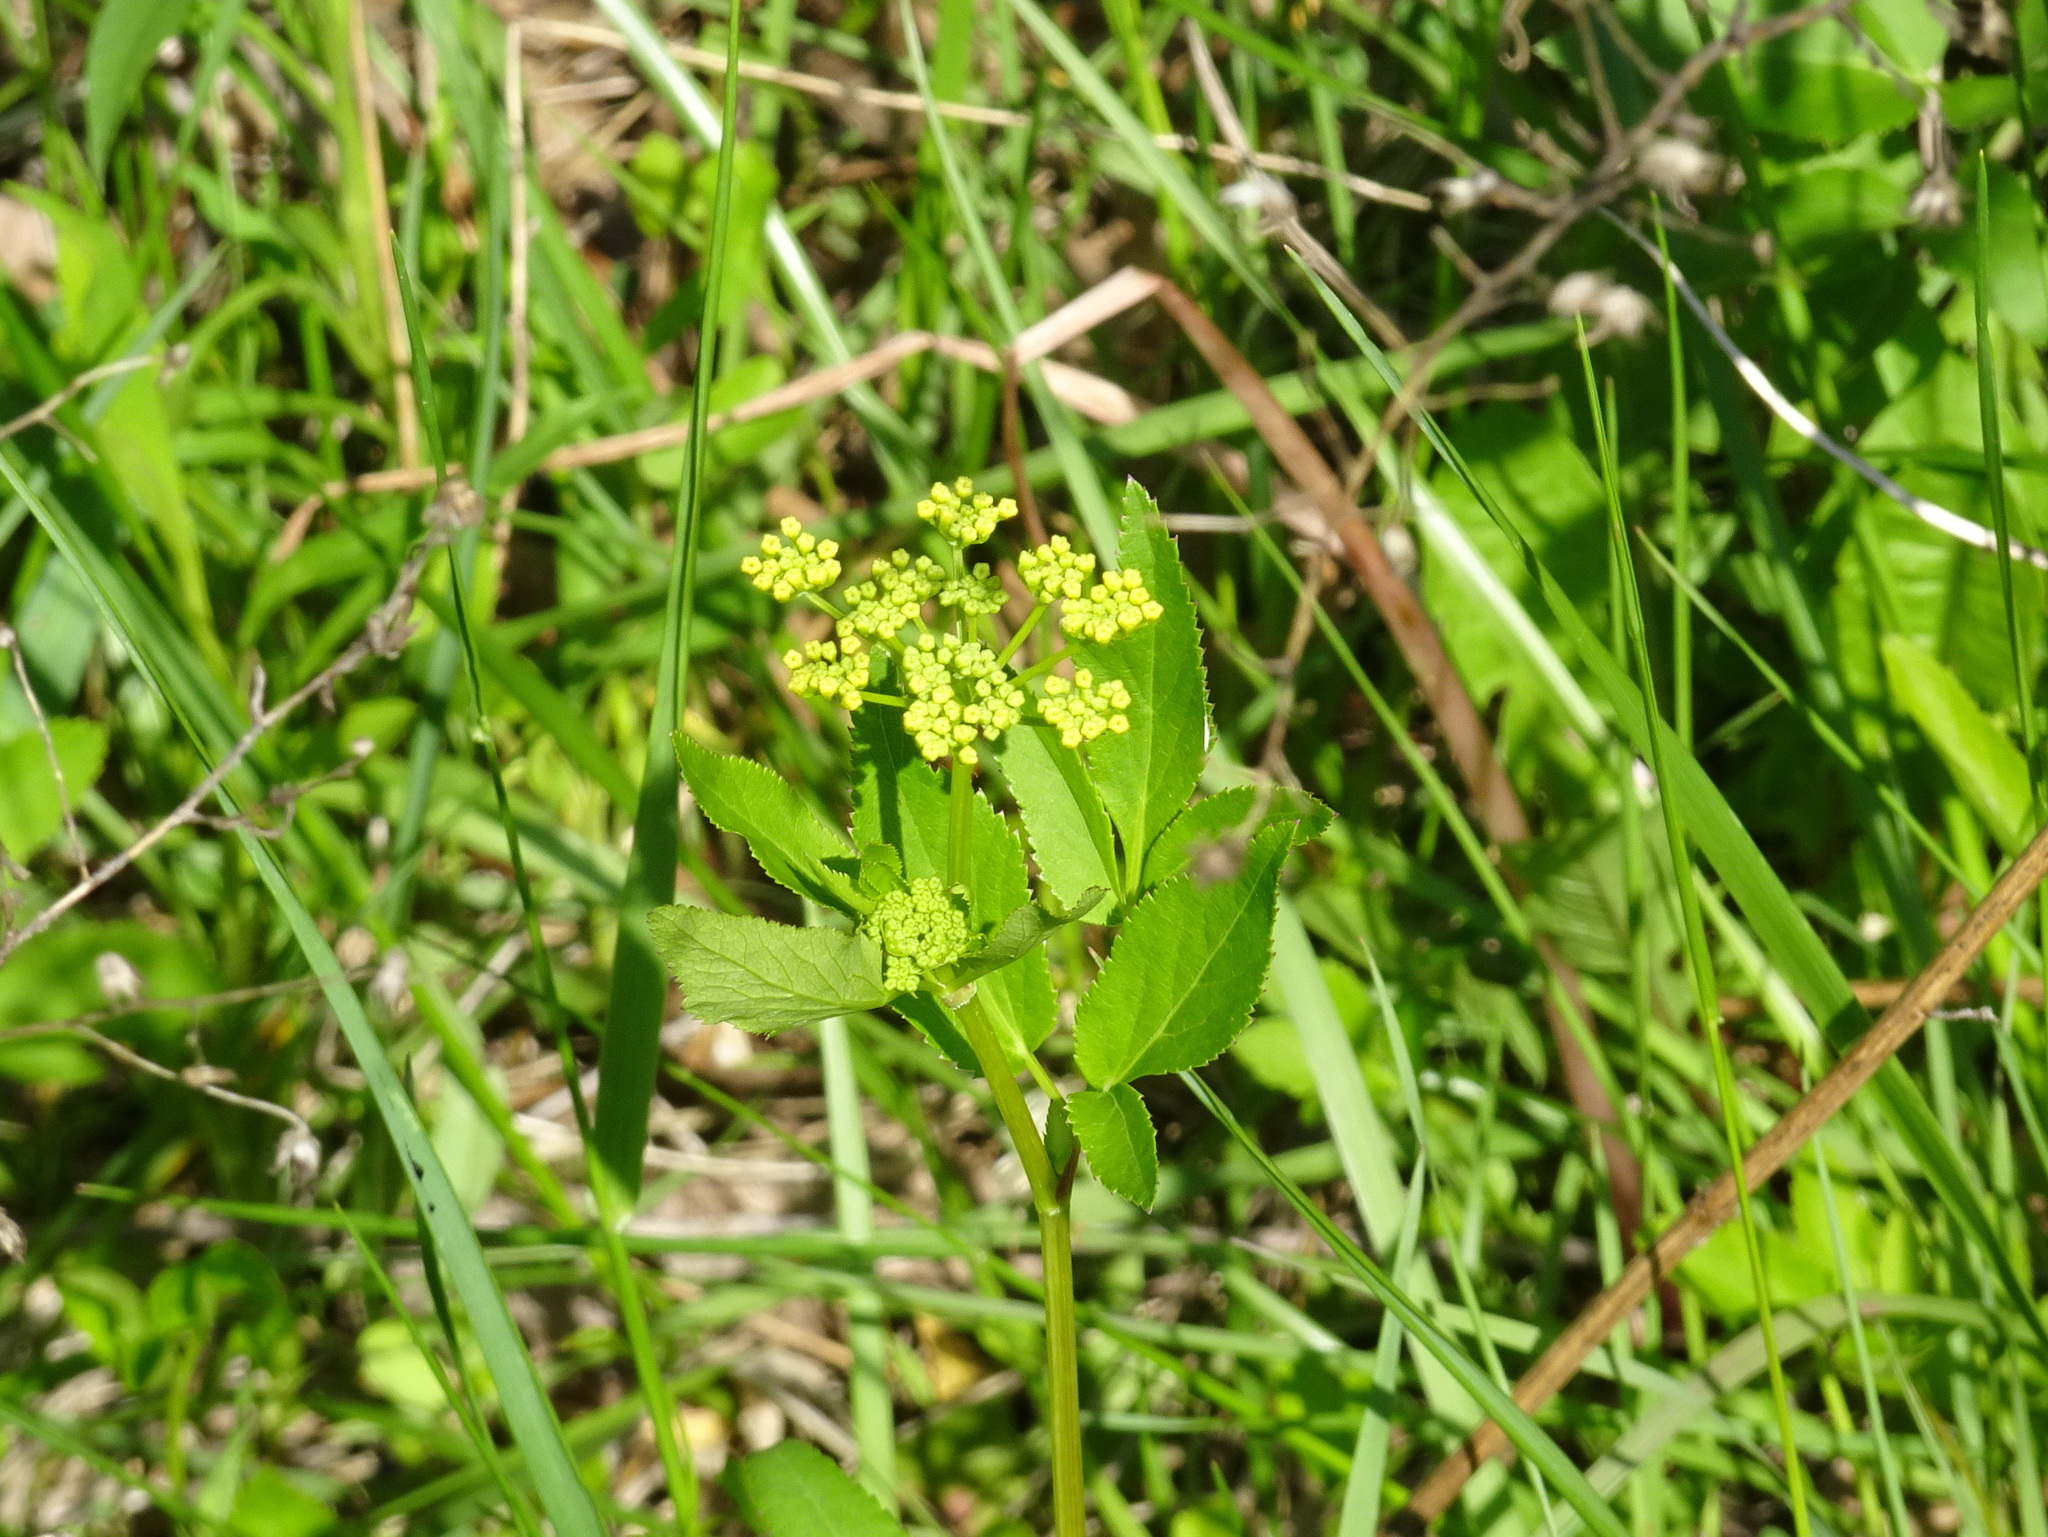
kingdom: Plantae
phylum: Tracheophyta
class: Magnoliopsida
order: Apiales
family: Apiaceae
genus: Zizia
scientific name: Zizia aurea
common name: Golden alexanders
